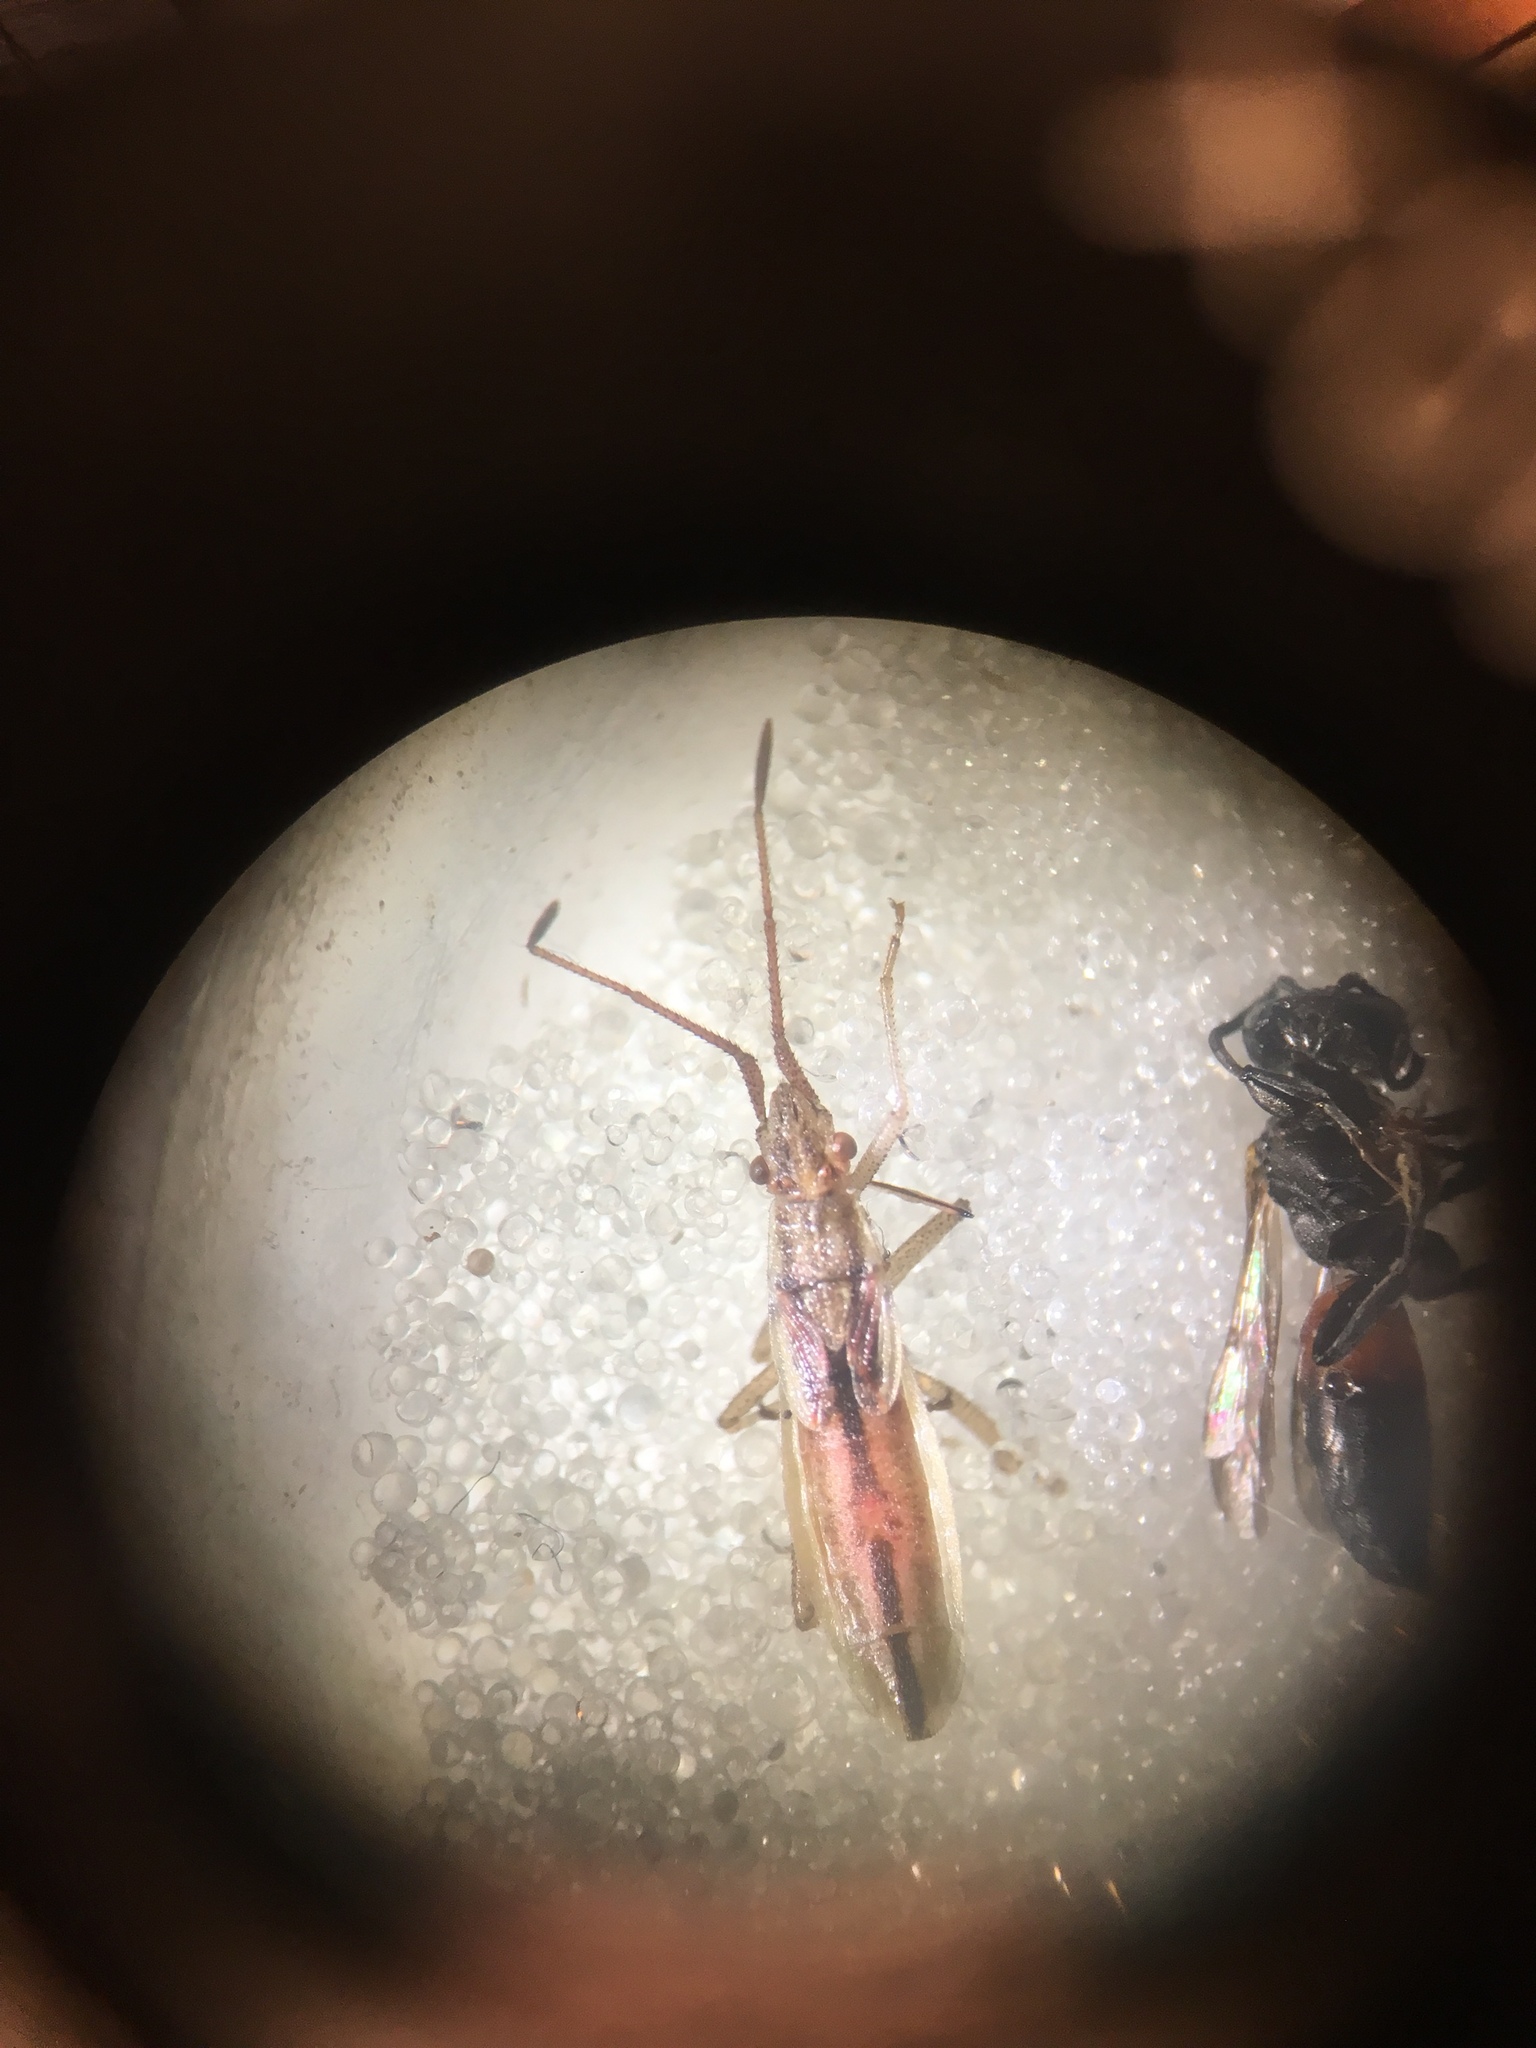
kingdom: Animalia
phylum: Arthropoda
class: Insecta
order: Hemiptera
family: Rhopalidae
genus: Myrmus
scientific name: Myrmus miriformis
